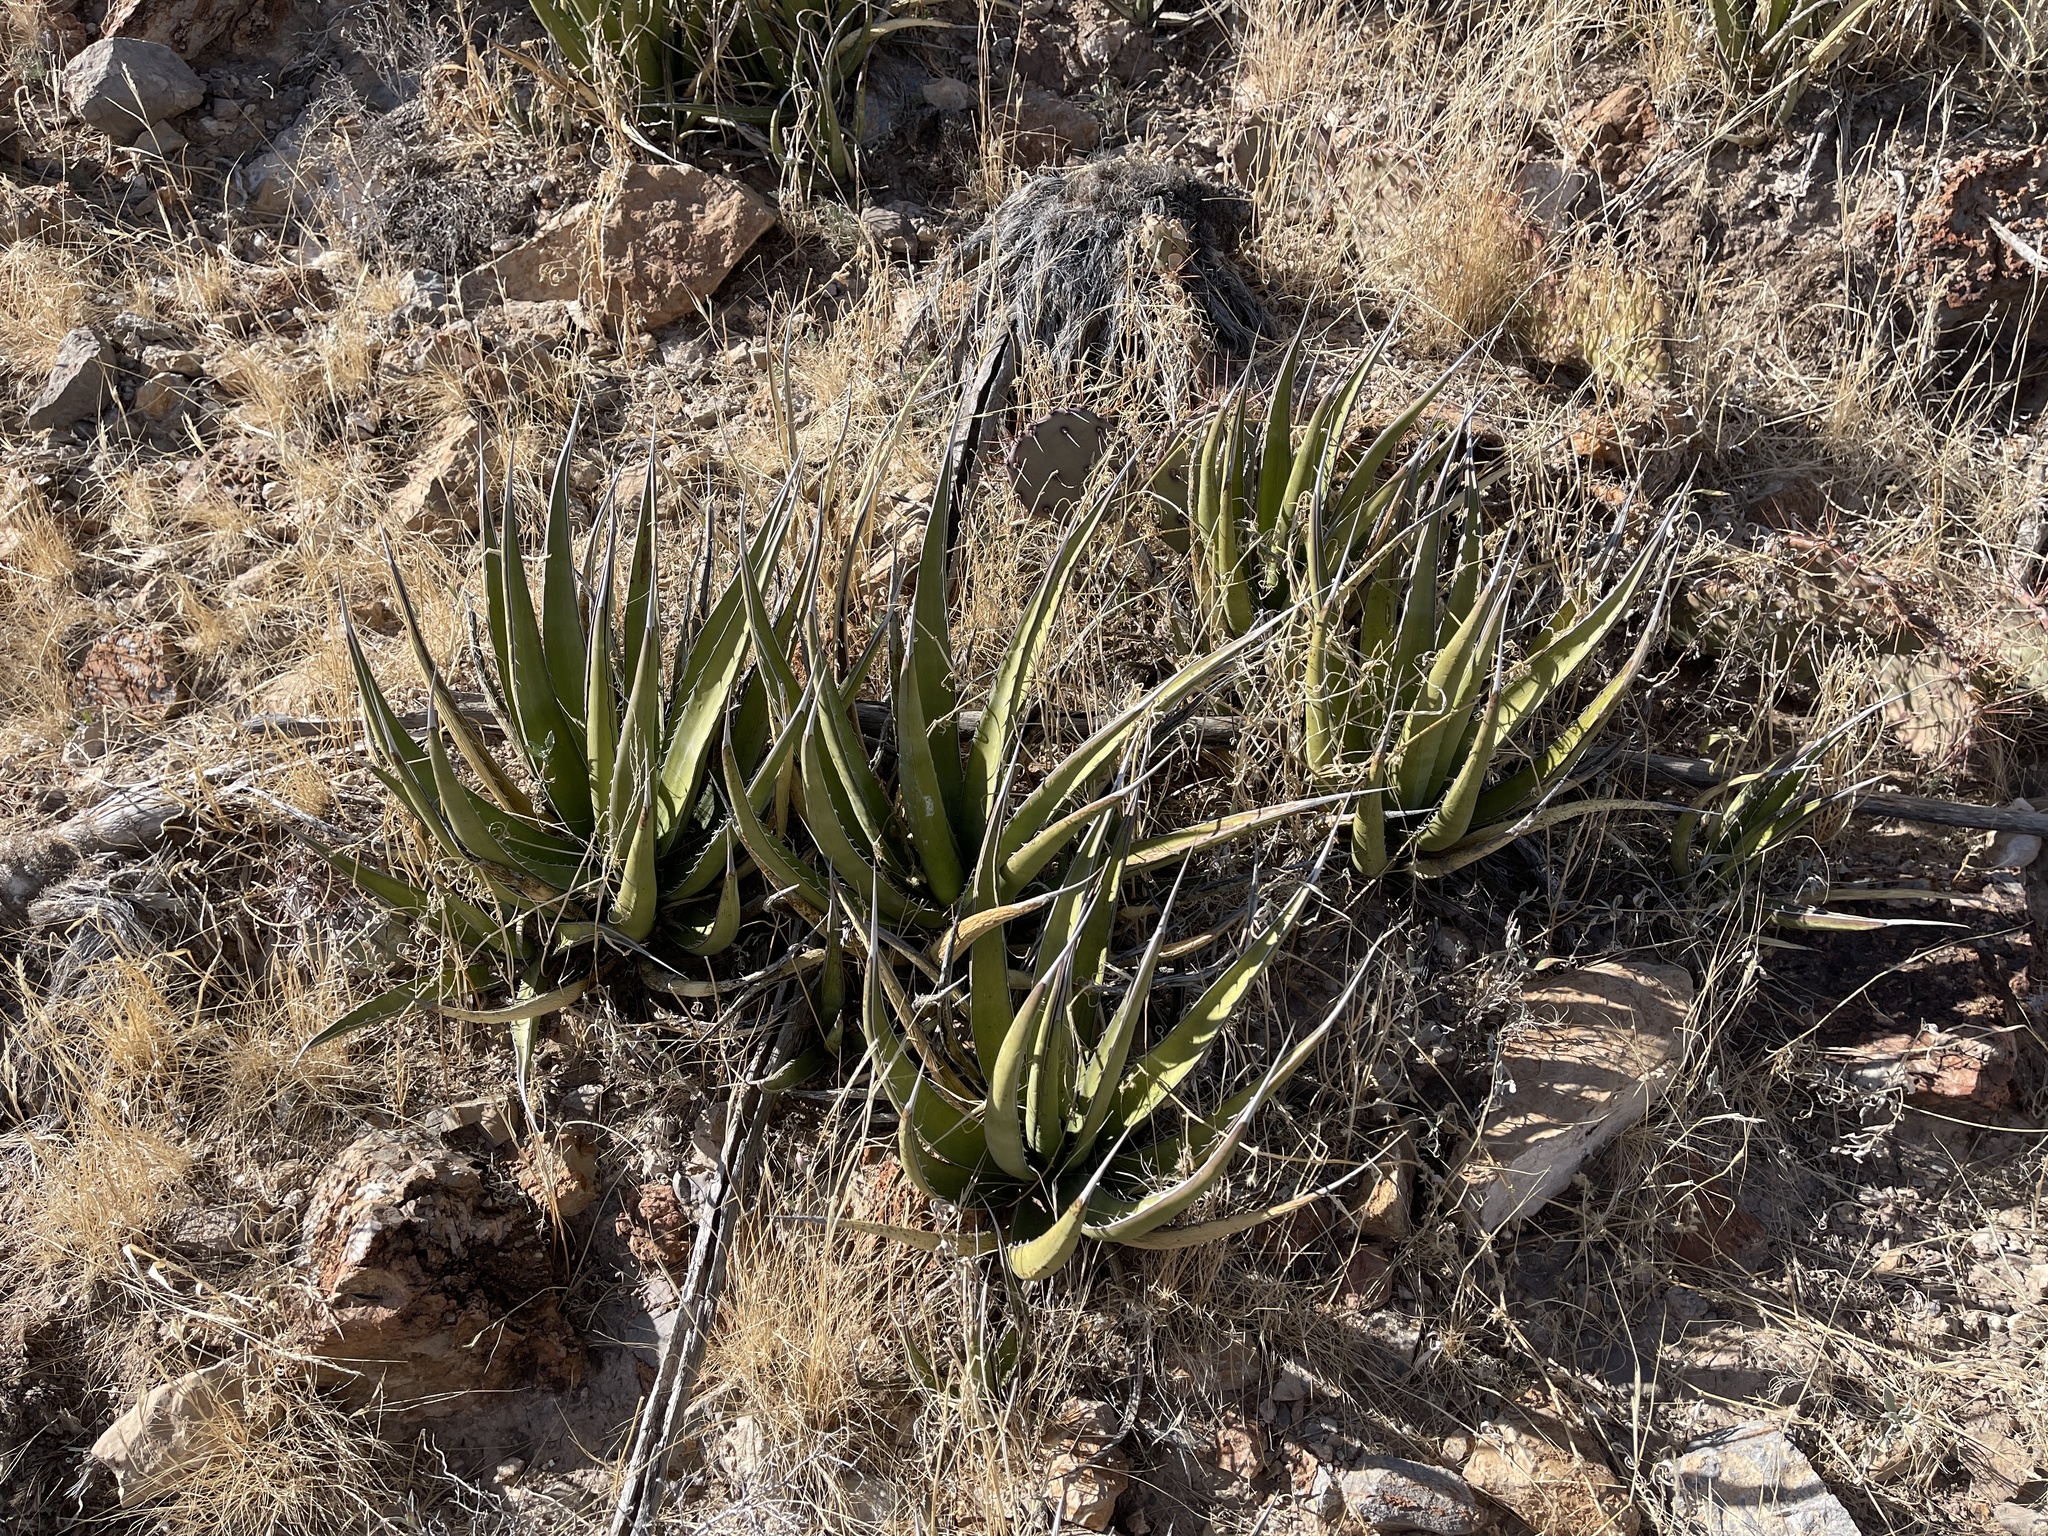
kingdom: Plantae
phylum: Tracheophyta
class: Liliopsida
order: Asparagales
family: Asparagaceae
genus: Agave
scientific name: Agave lechuguilla
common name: Lecheguilla agave
